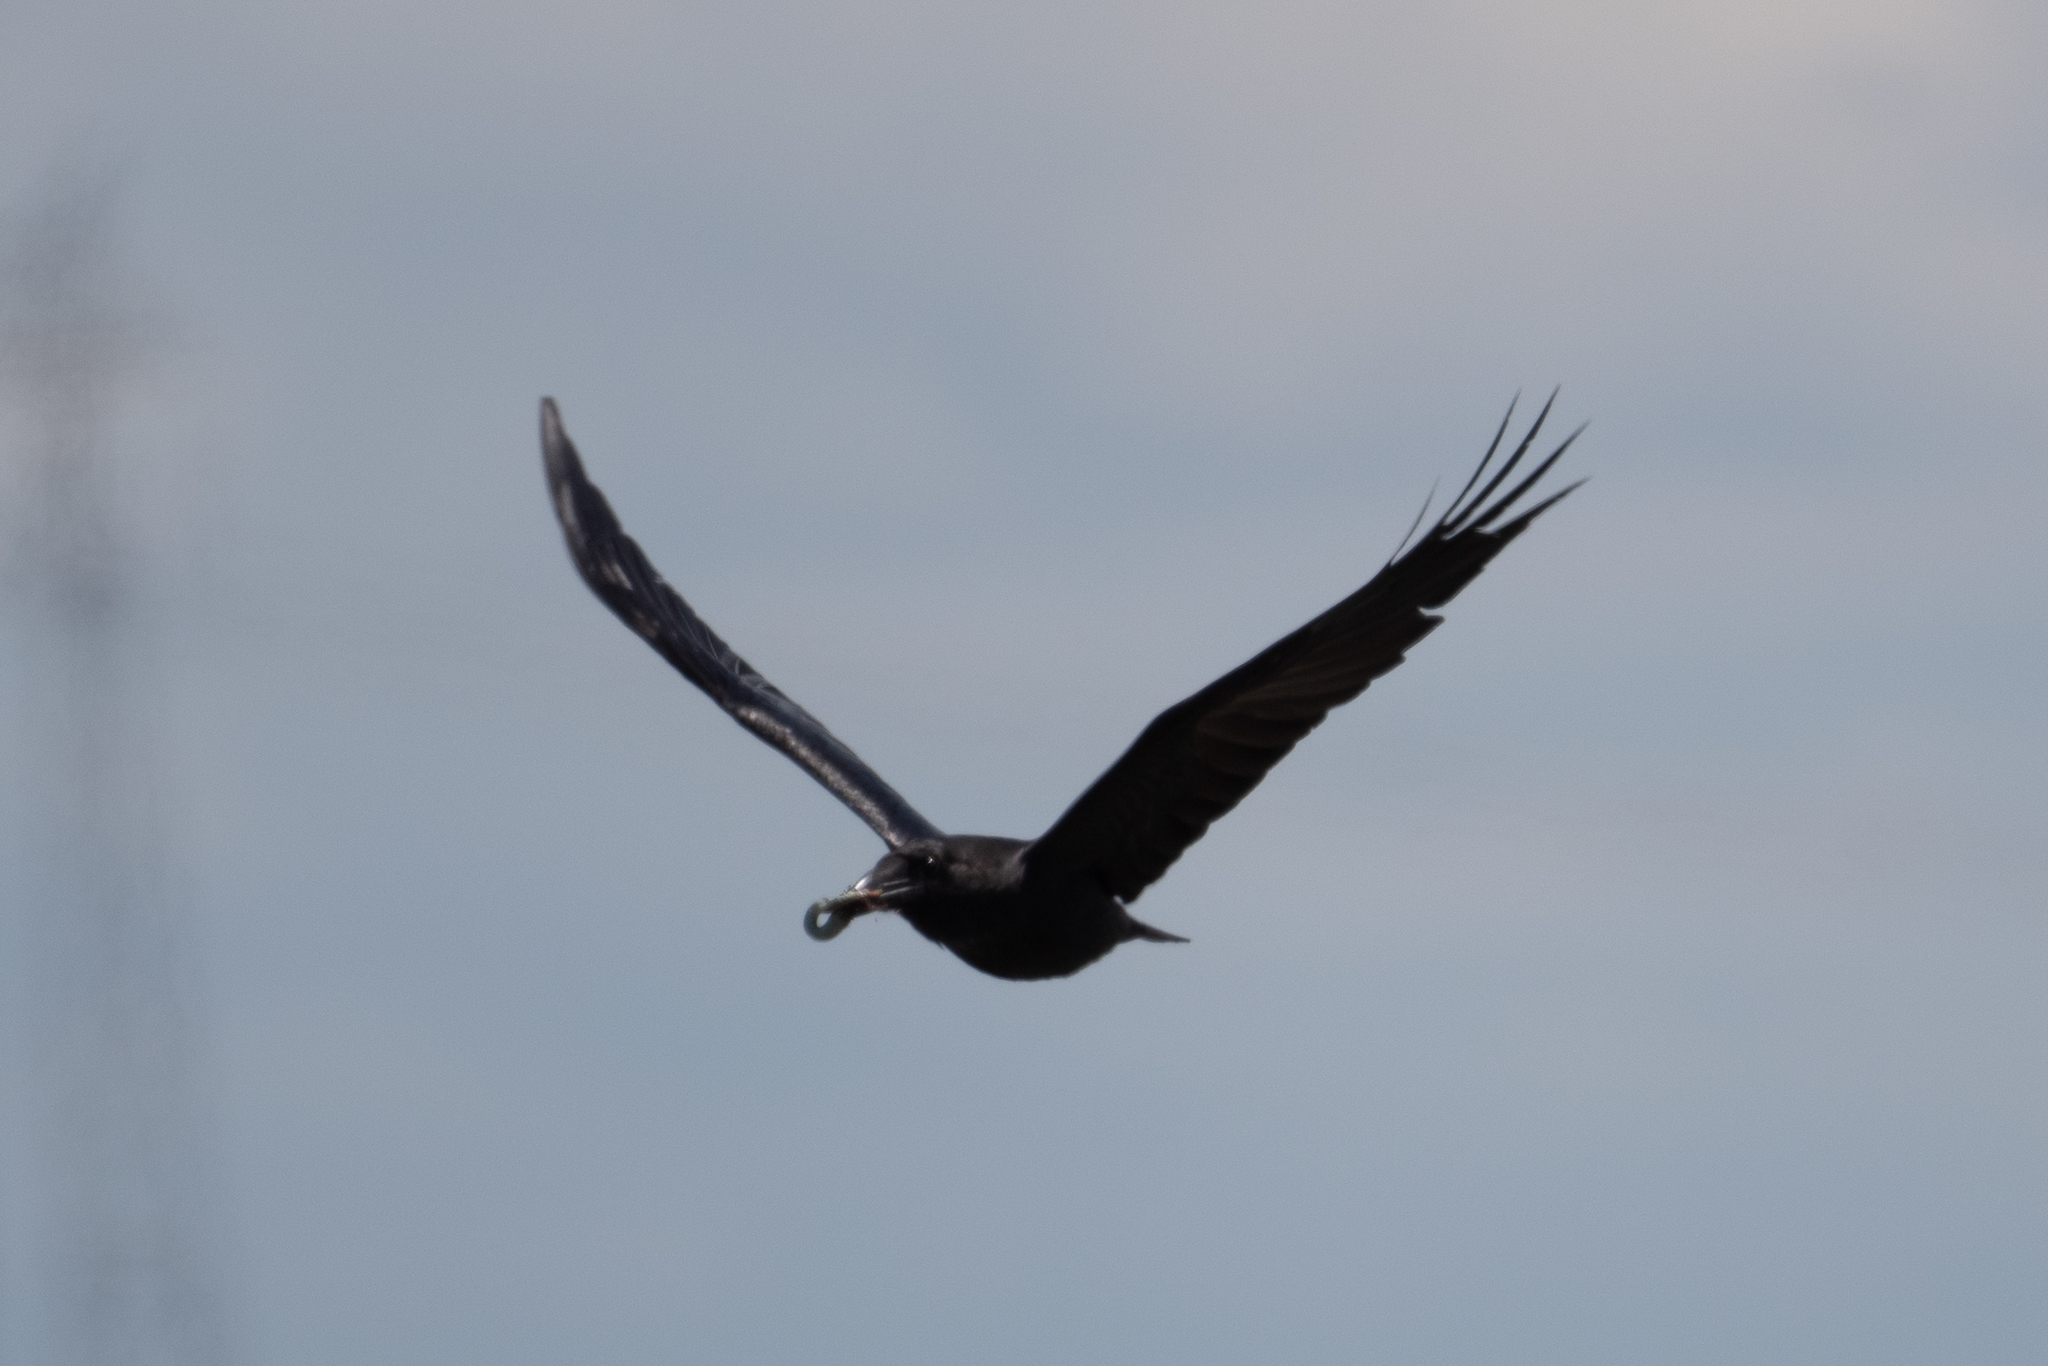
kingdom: Animalia
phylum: Chordata
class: Aves
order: Passeriformes
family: Corvidae
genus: Corvus
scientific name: Corvus corax
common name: Common raven
